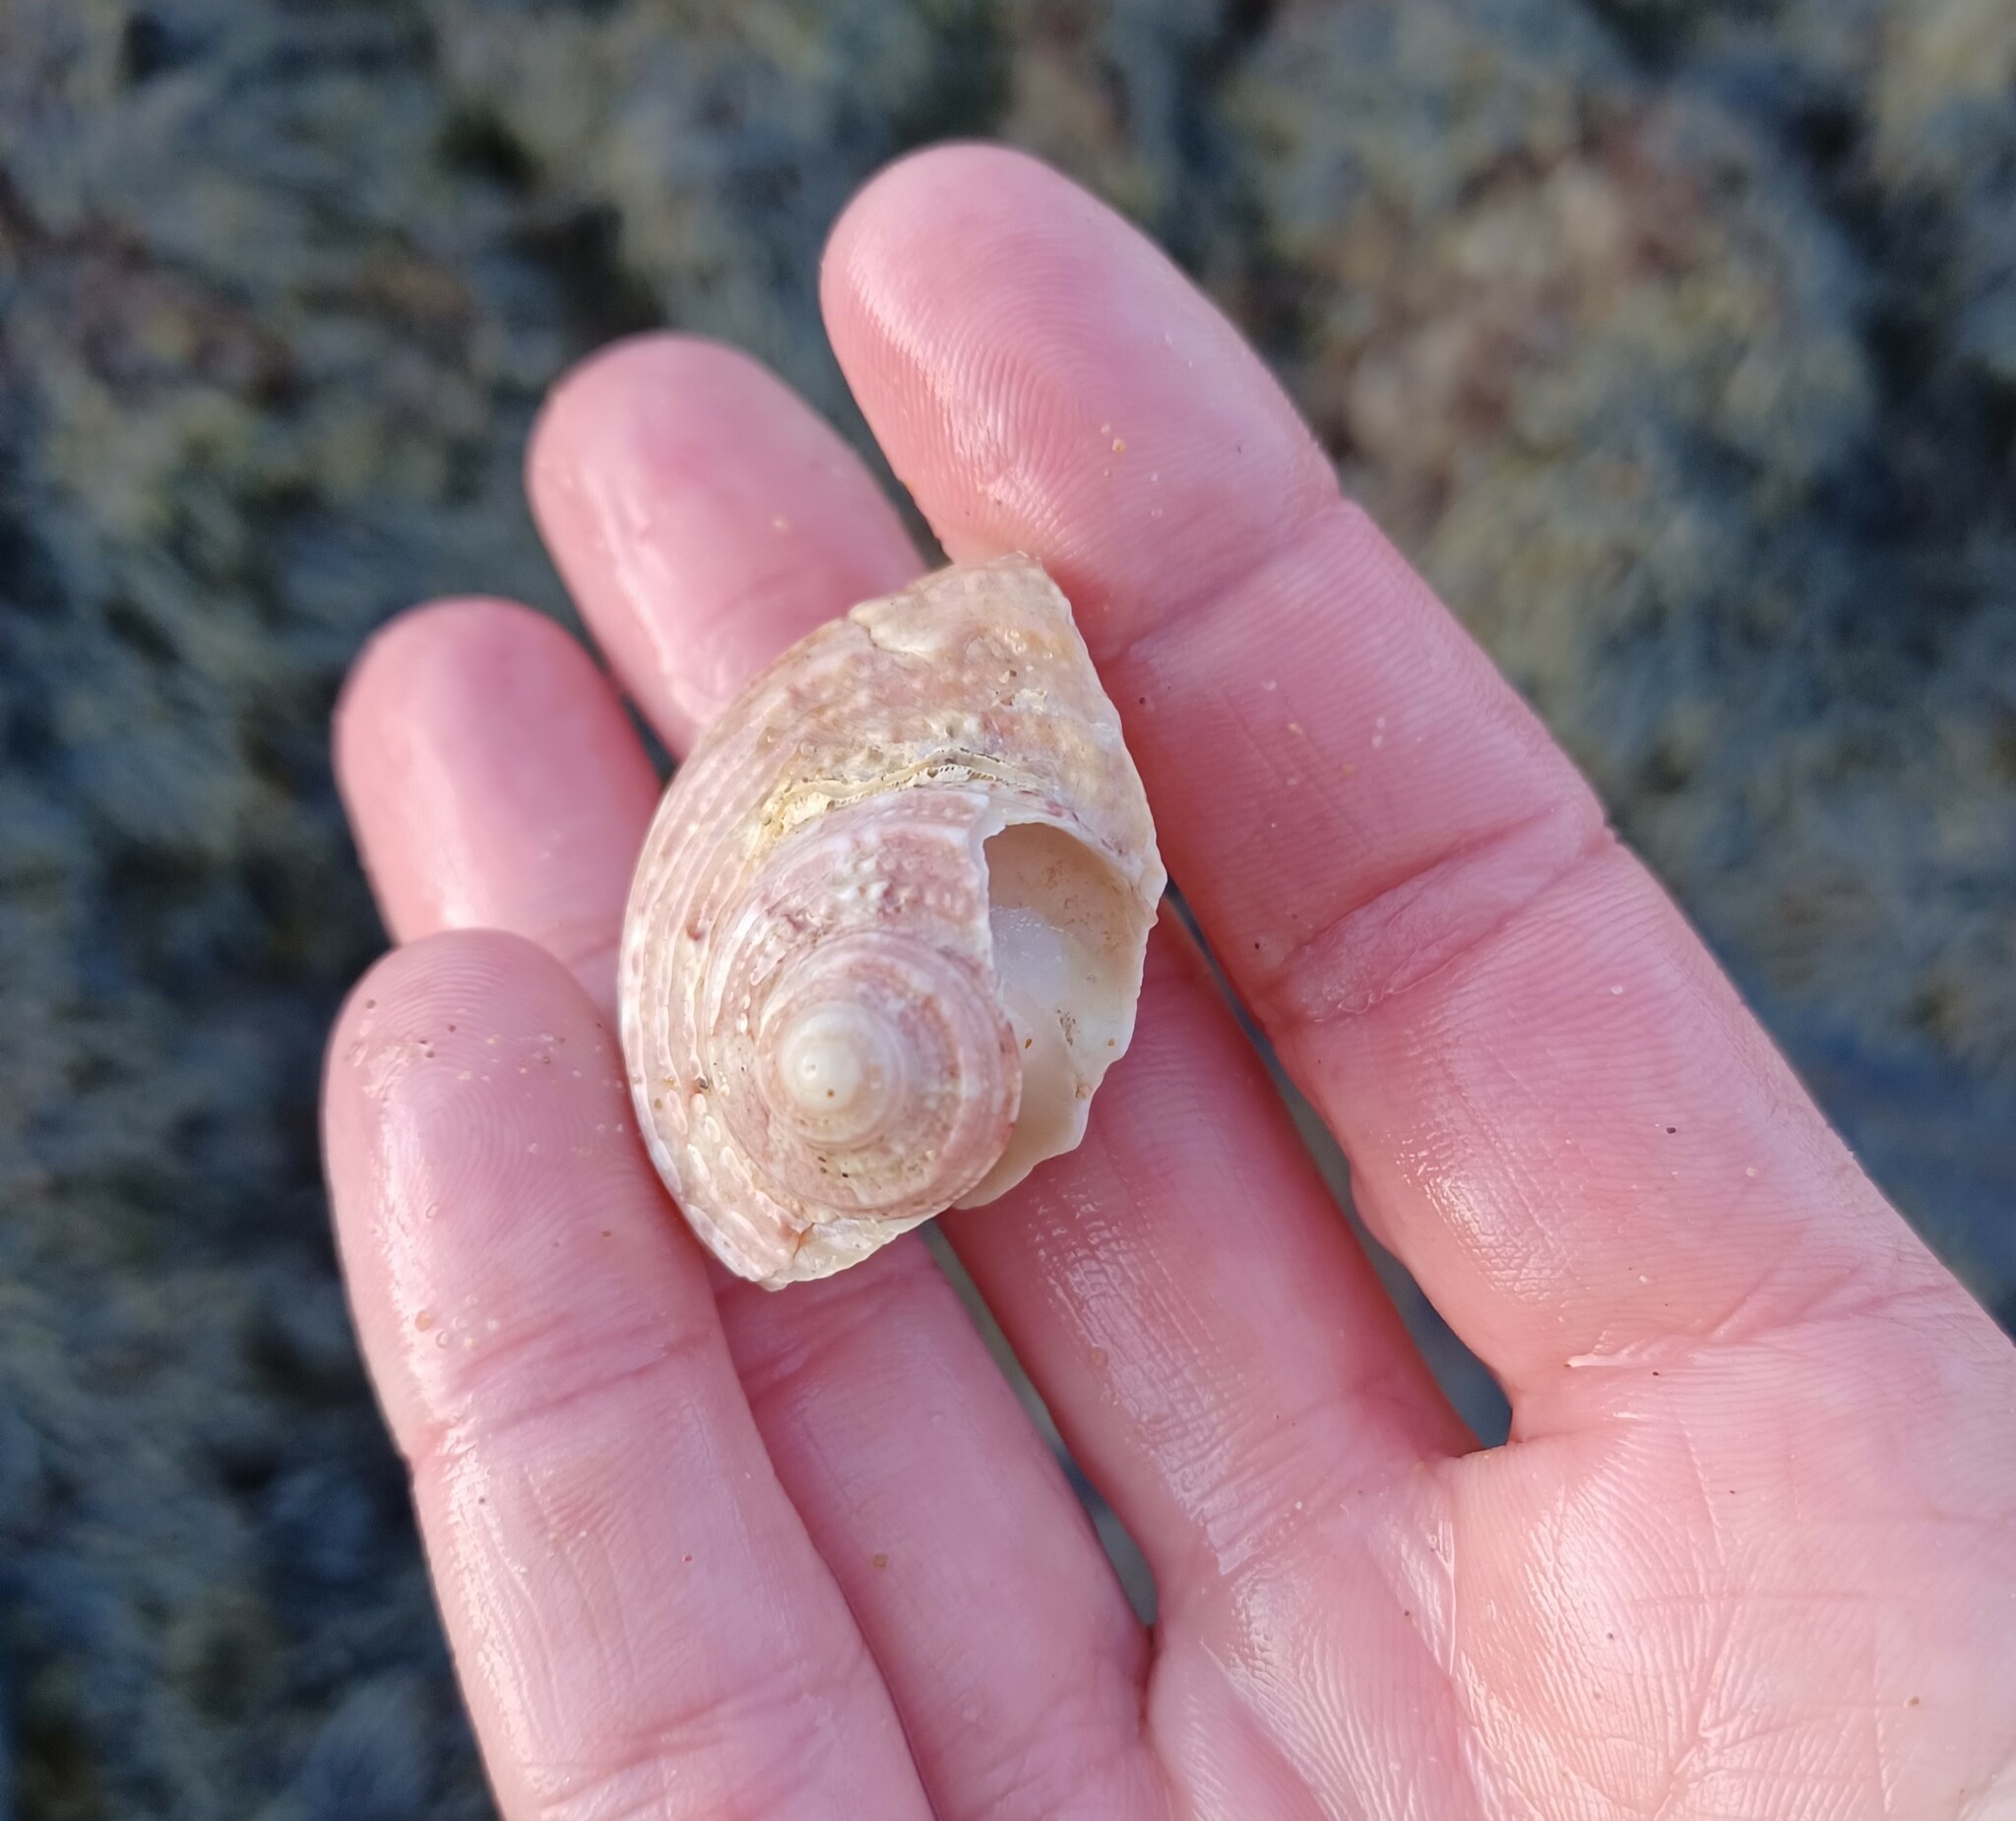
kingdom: Animalia
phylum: Mollusca
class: Gastropoda
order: Trochida
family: Turbinidae
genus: Turbo
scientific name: Turbo gruneri
